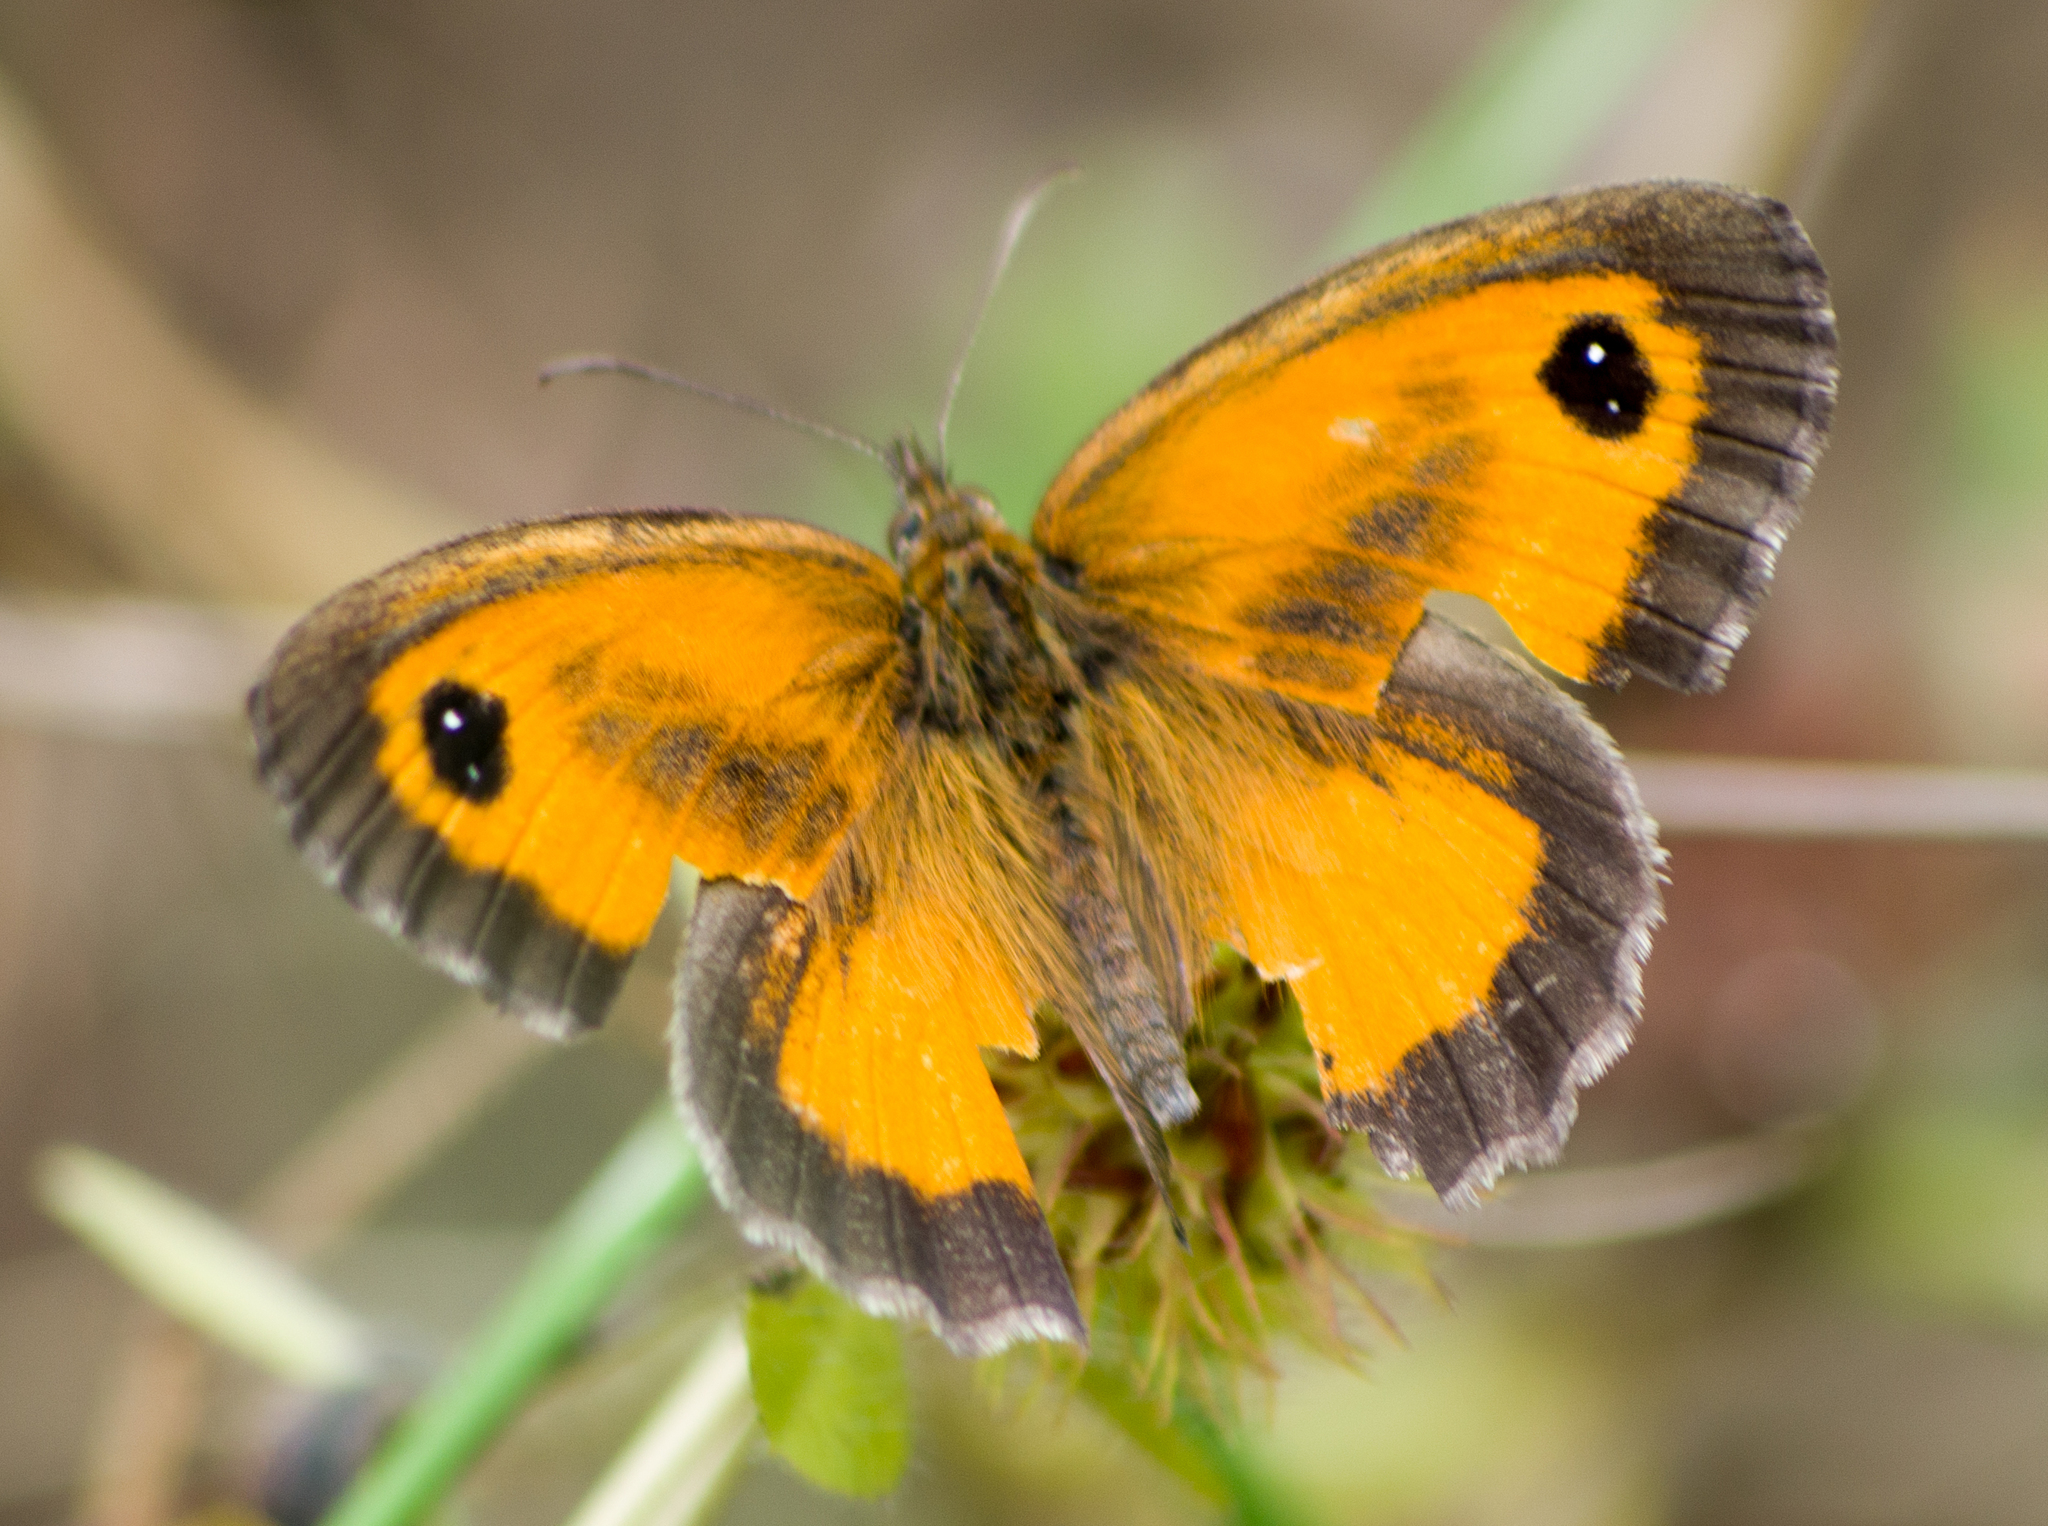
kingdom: Animalia
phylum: Arthropoda
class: Insecta
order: Lepidoptera
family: Nymphalidae
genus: Pyronia
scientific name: Pyronia tithonus
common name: Gatekeeper
